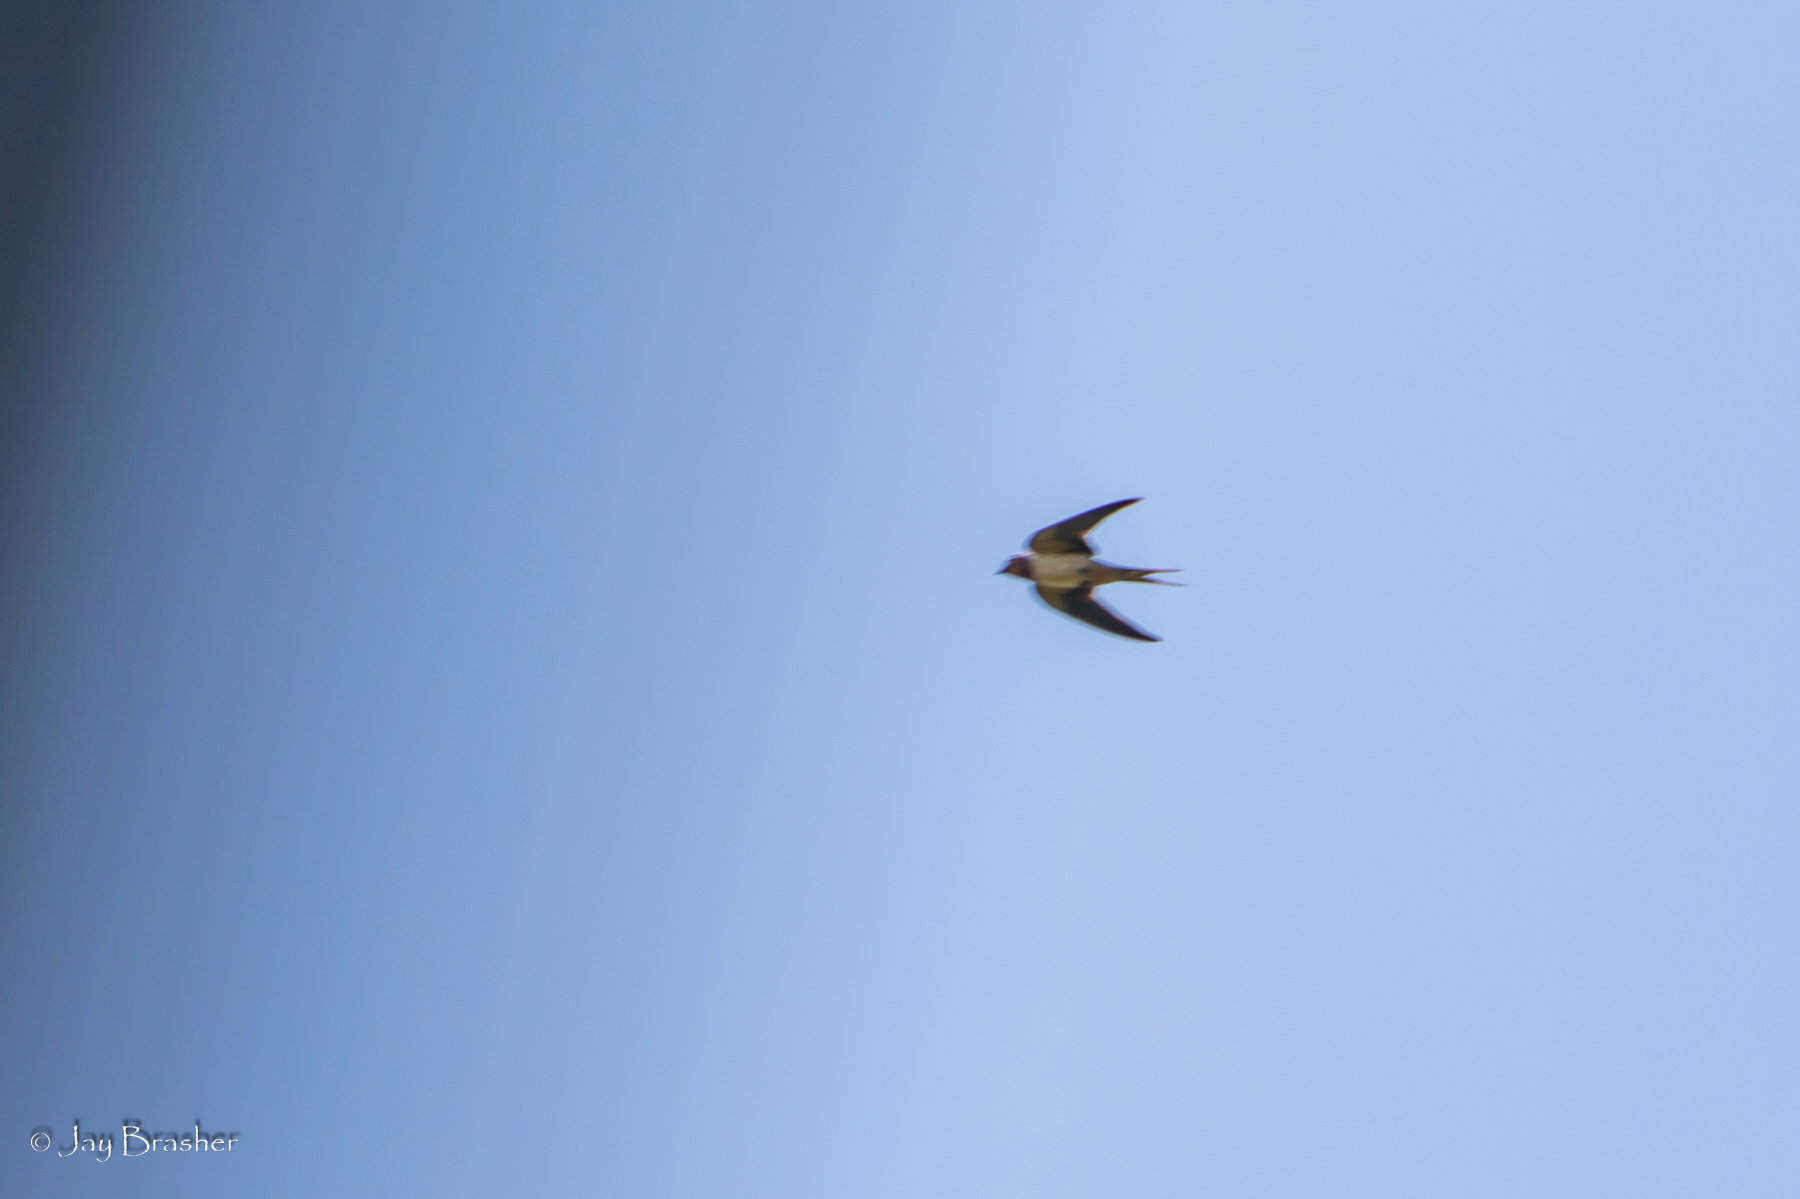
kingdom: Animalia
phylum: Chordata
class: Aves
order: Passeriformes
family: Hirundinidae
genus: Hirundo
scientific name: Hirundo rustica
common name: Barn swallow
